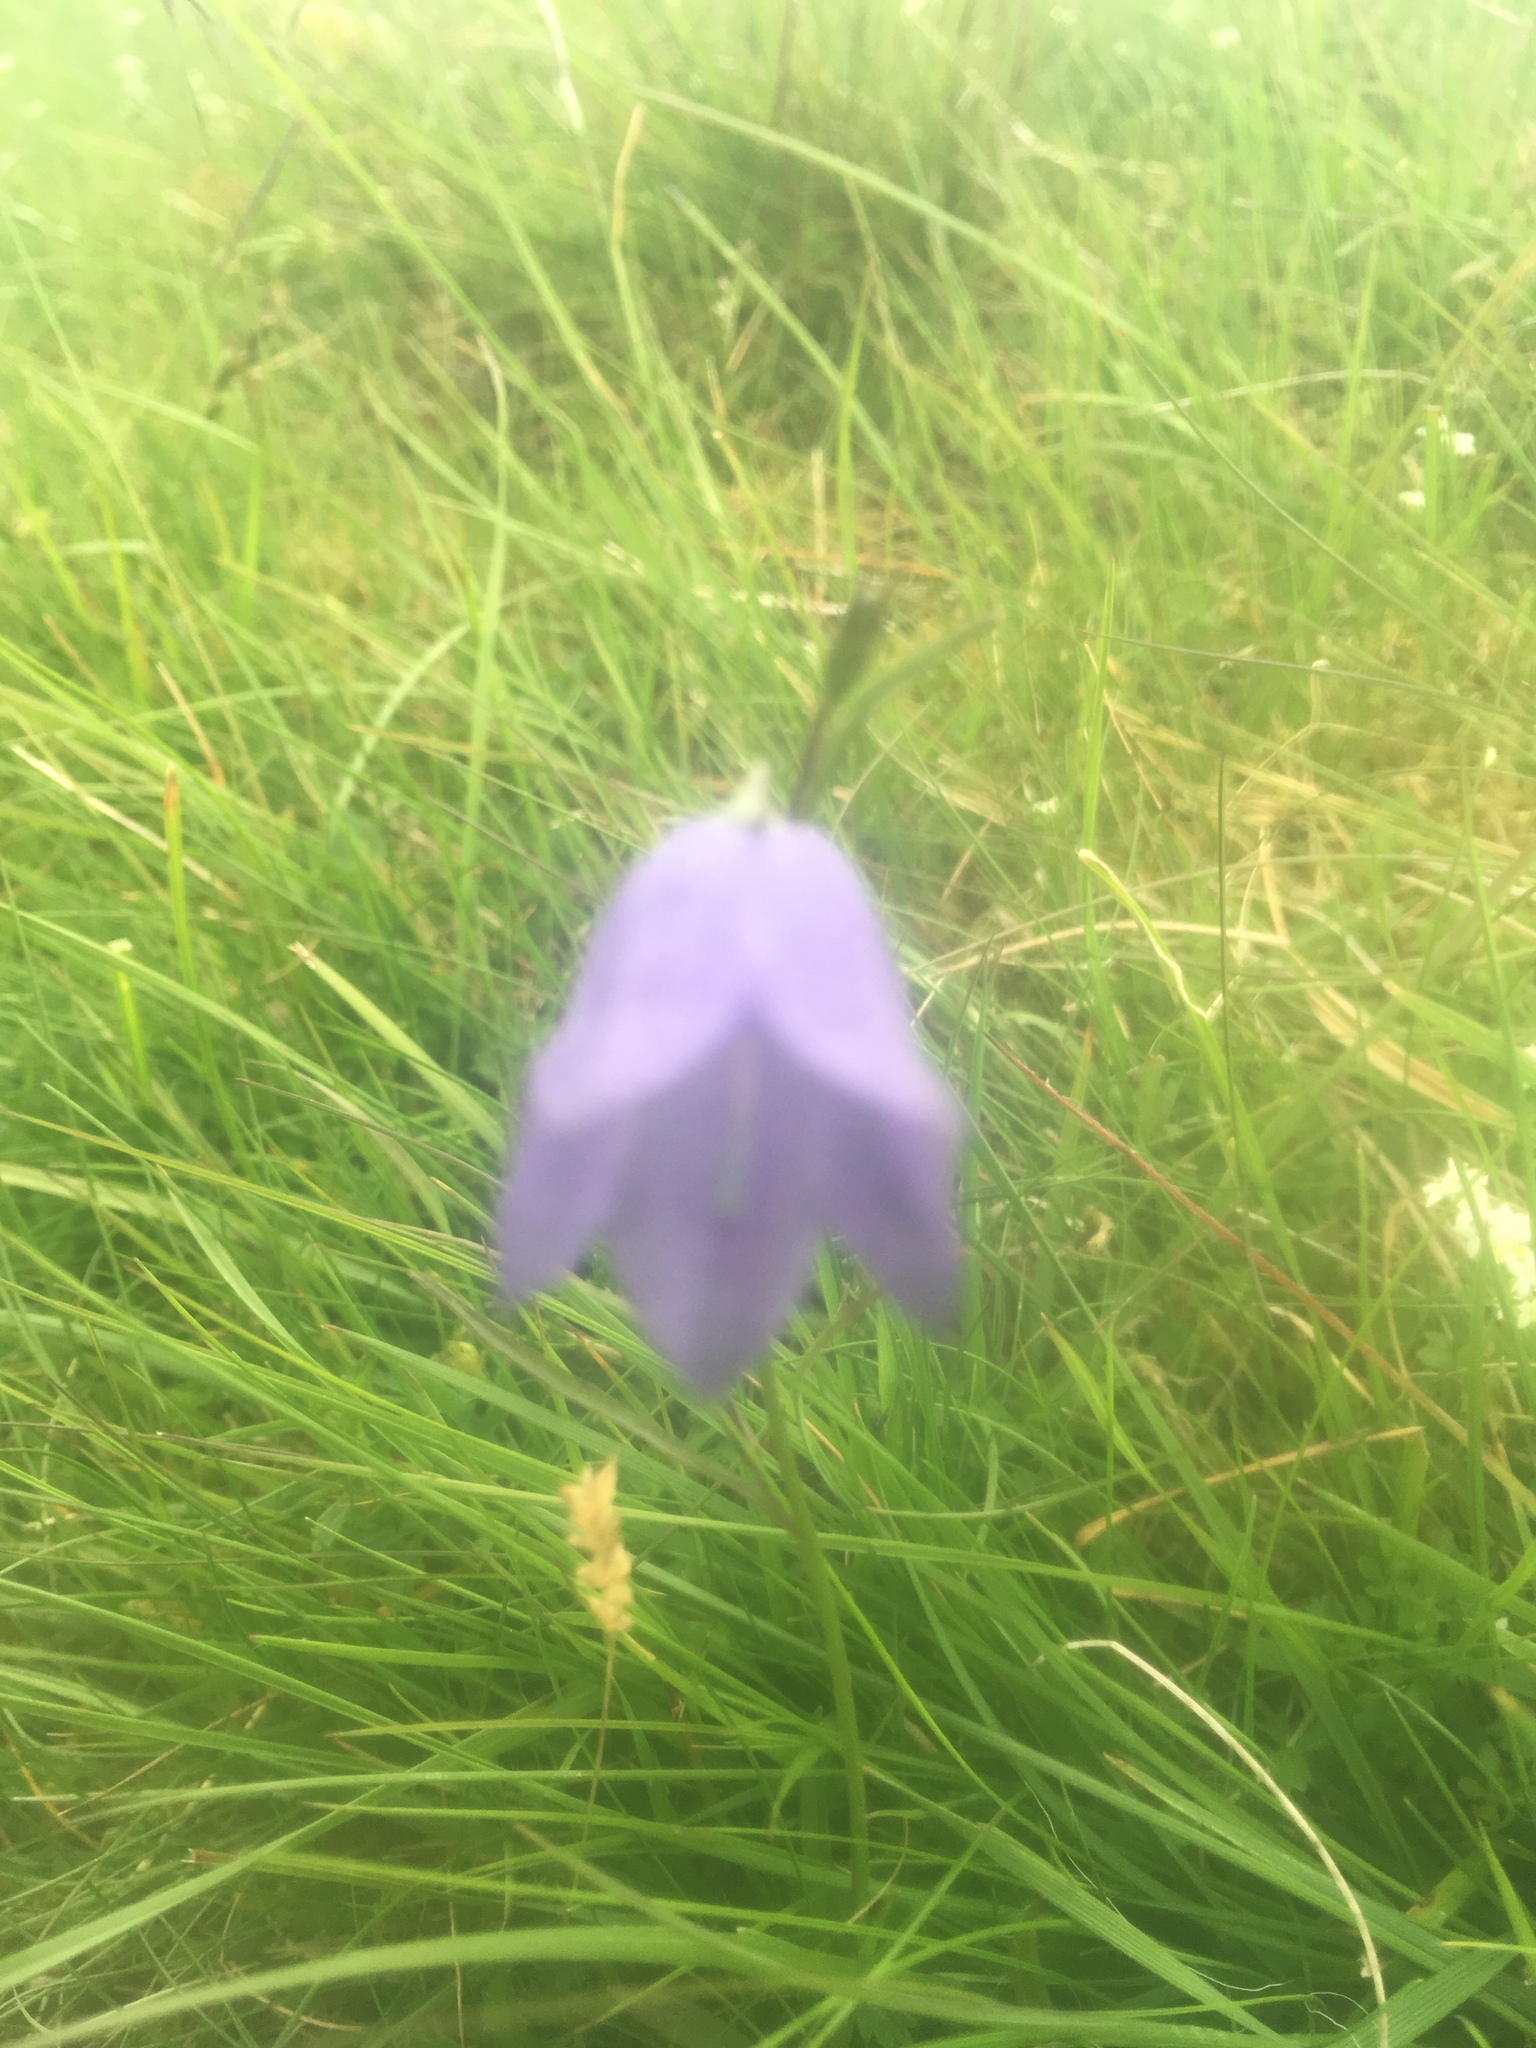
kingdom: Plantae
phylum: Tracheophyta
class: Magnoliopsida
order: Asterales
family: Campanulaceae
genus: Campanula
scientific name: Campanula rotundifolia
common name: Harebell
